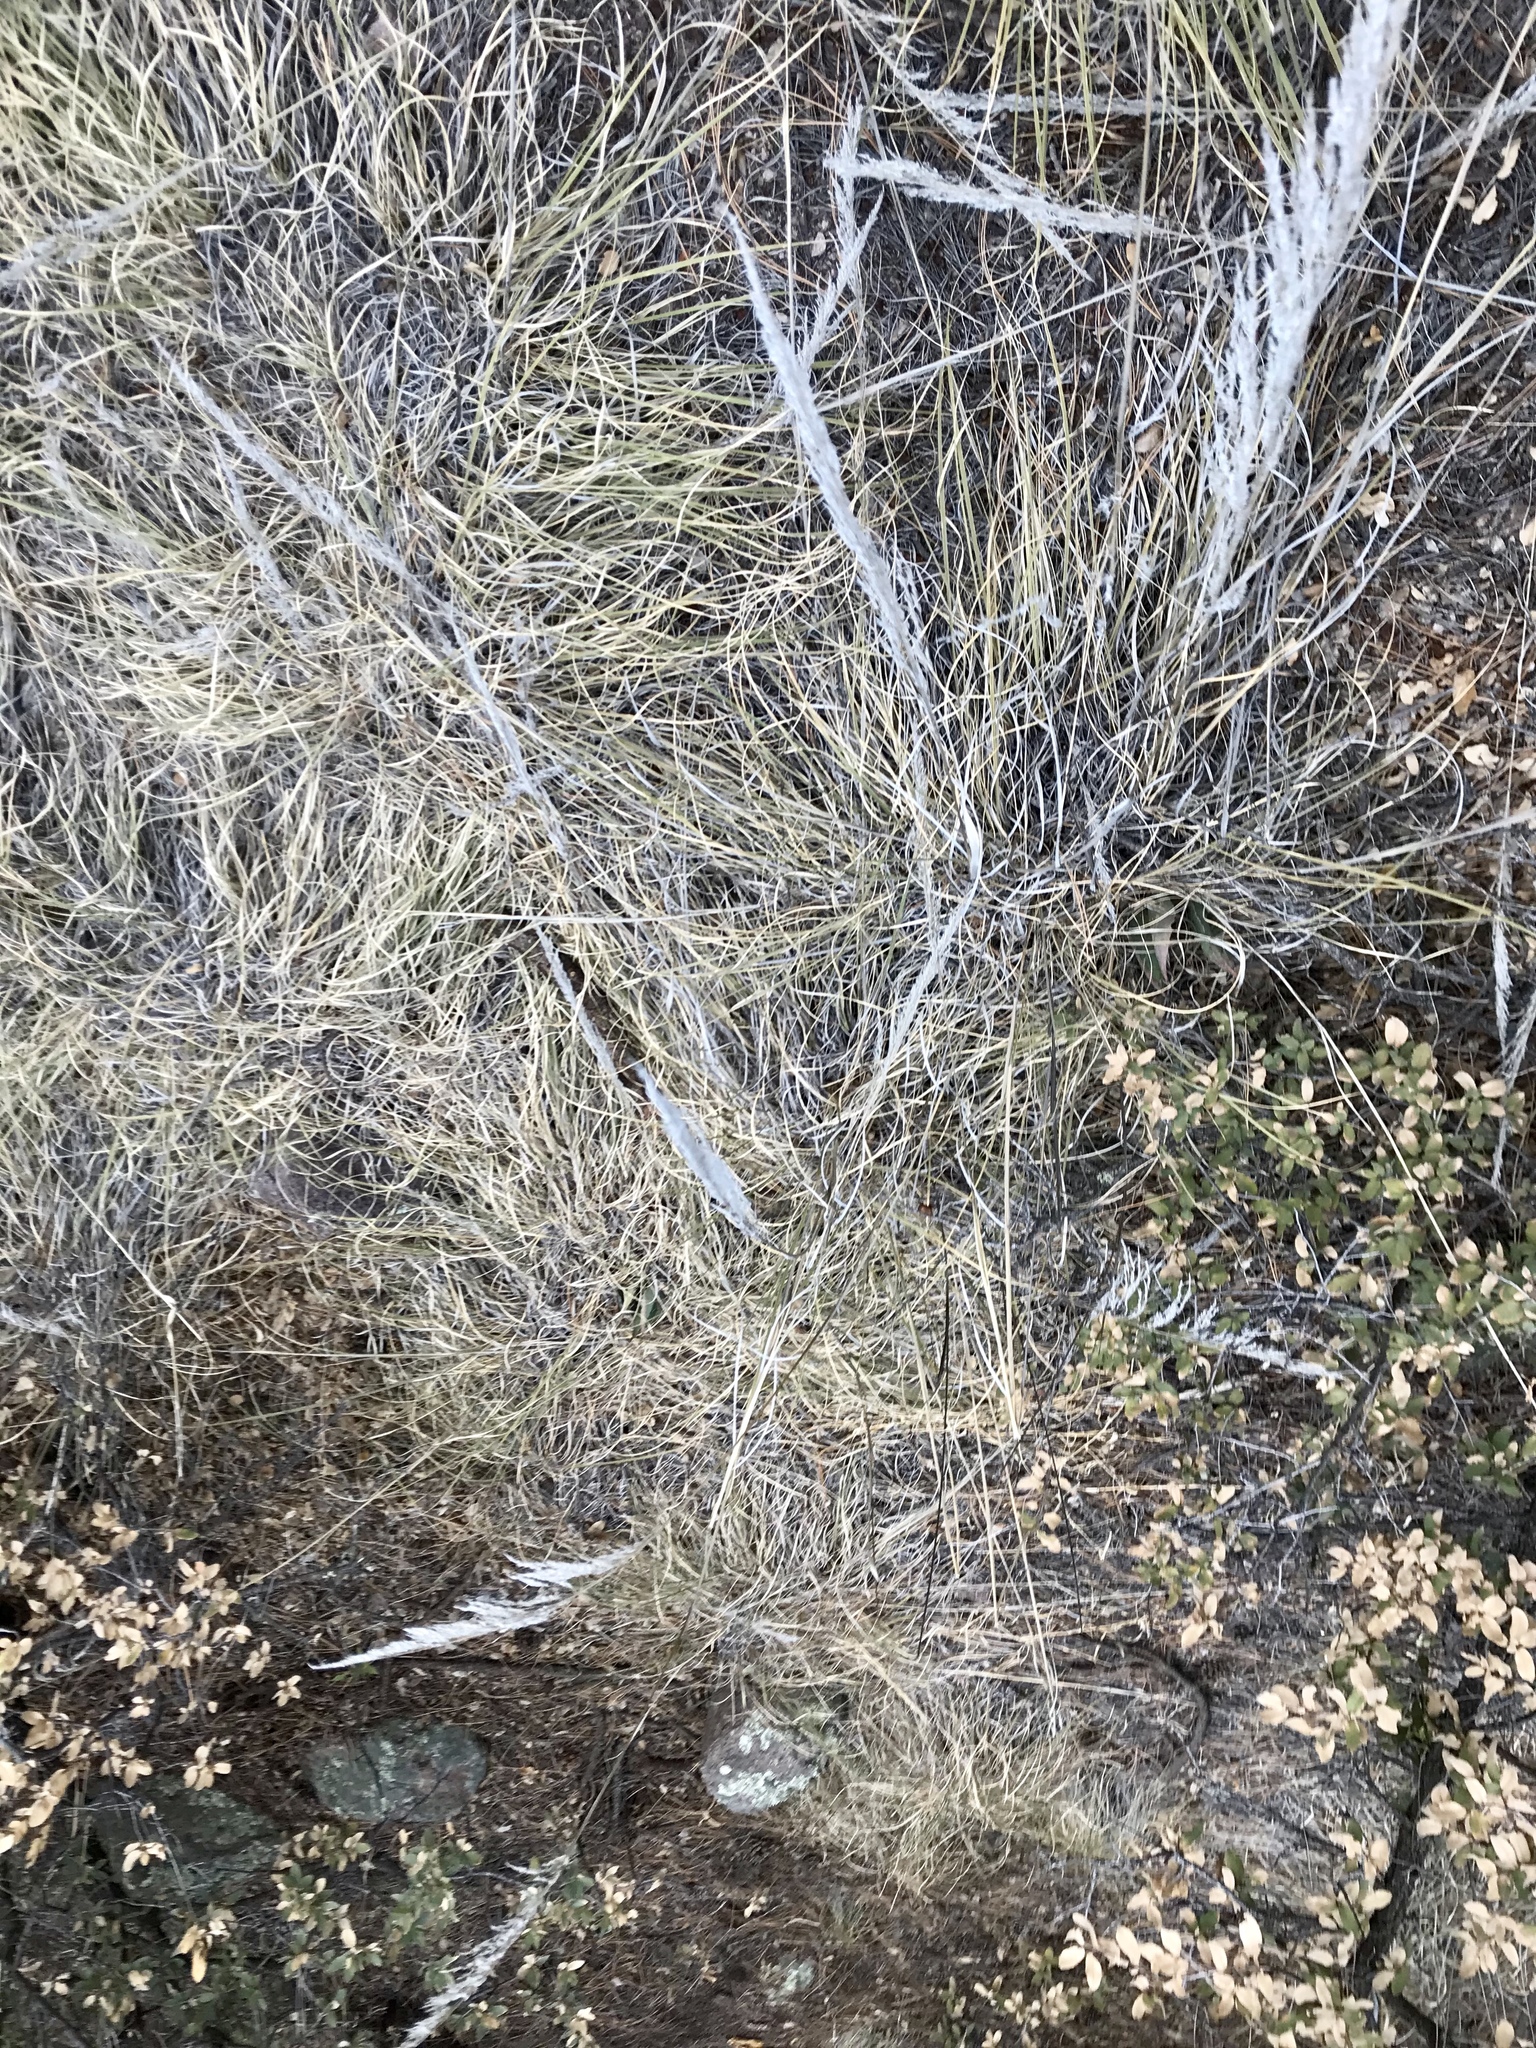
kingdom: Plantae
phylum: Tracheophyta
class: Liliopsida
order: Poales
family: Poaceae
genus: Muhlenbergia
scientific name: Muhlenbergia emersleyi
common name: Bull grass
